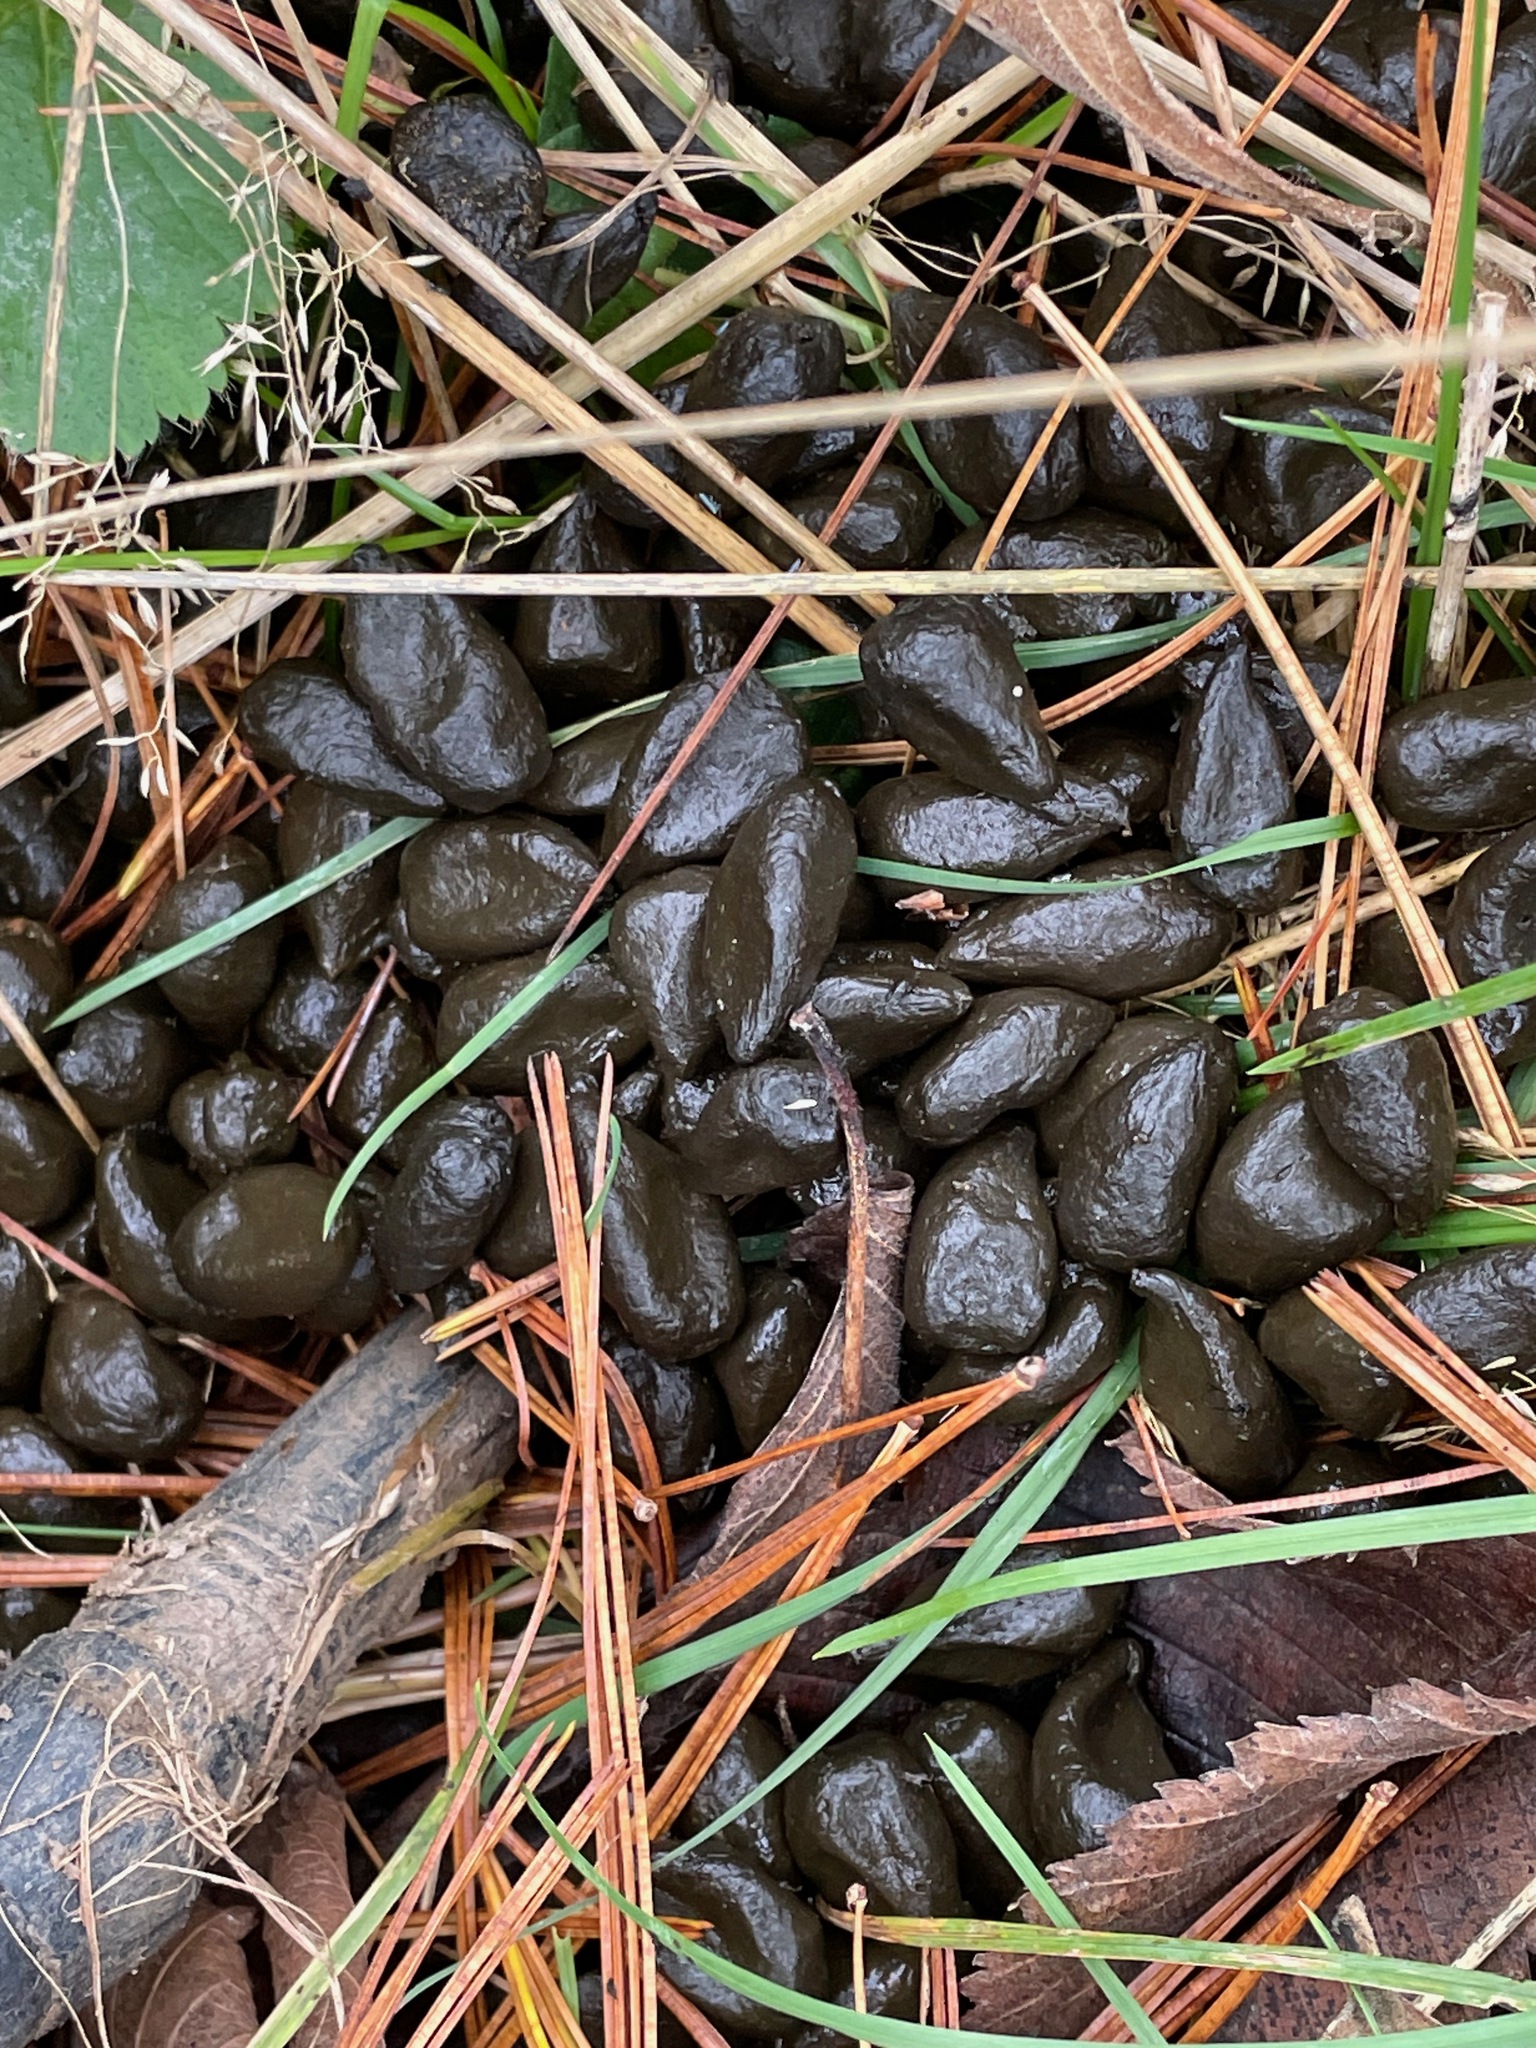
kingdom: Animalia
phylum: Chordata
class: Mammalia
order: Artiodactyla
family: Cervidae
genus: Odocoileus
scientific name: Odocoileus virginianus
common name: White-tailed deer
